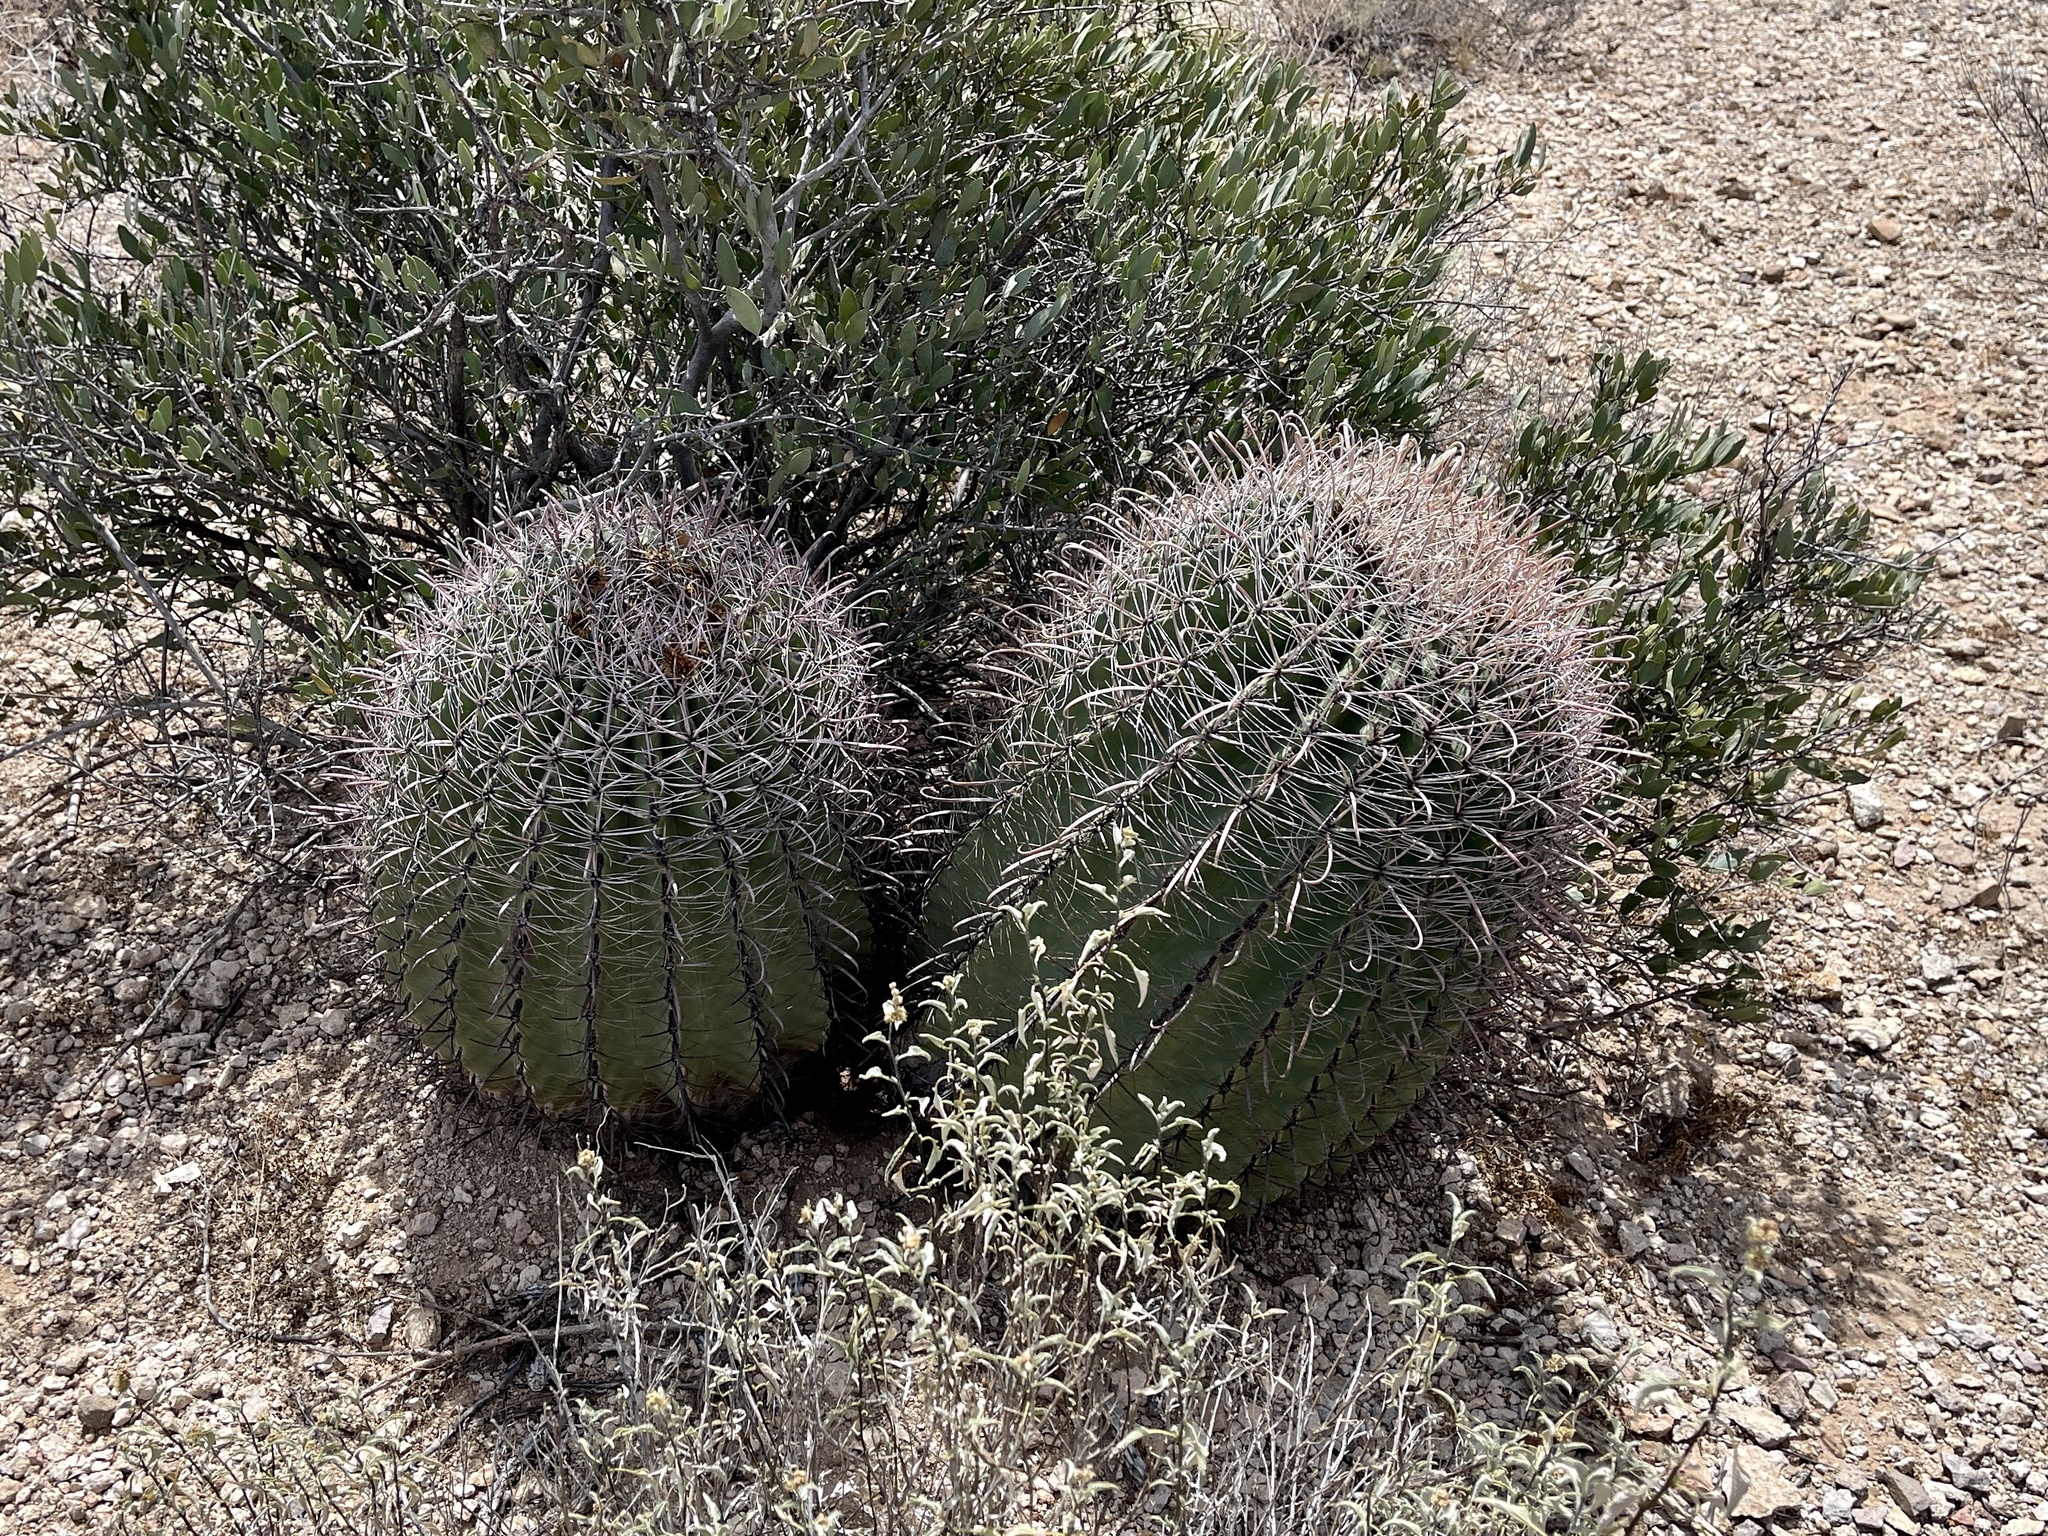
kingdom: Plantae
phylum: Tracheophyta
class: Magnoliopsida
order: Caryophyllales
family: Cactaceae
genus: Ferocactus
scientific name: Ferocactus wislizeni
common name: Candy barrel cactus
